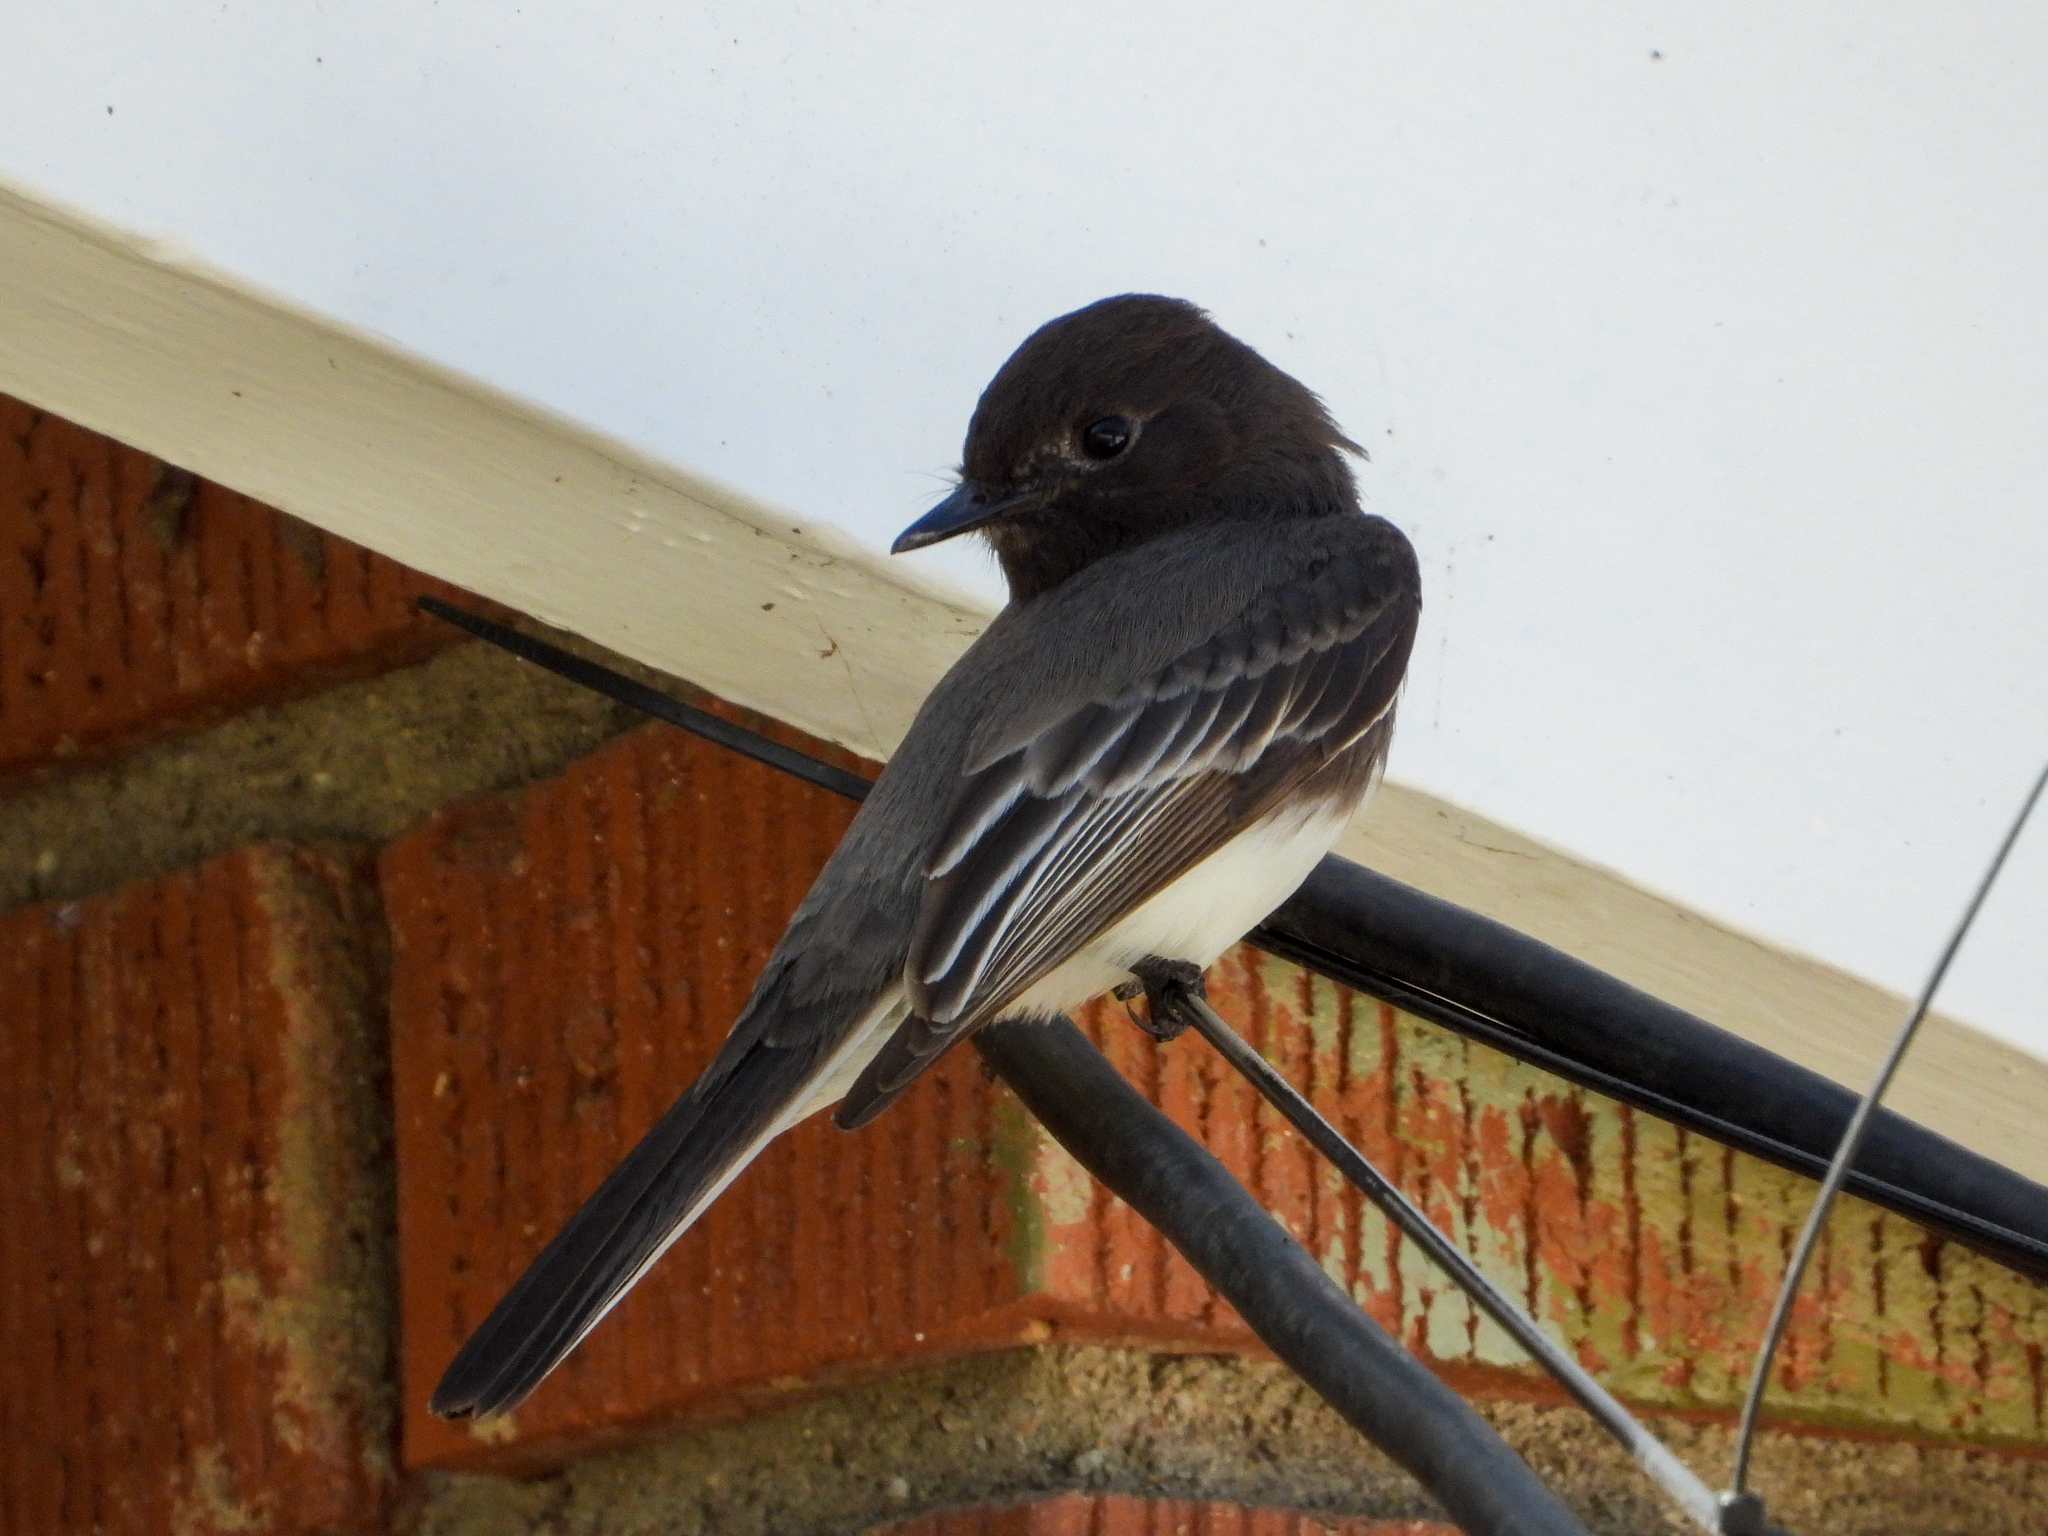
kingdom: Animalia
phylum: Chordata
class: Aves
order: Passeriformes
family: Tyrannidae
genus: Sayornis
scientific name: Sayornis nigricans
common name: Black phoebe
